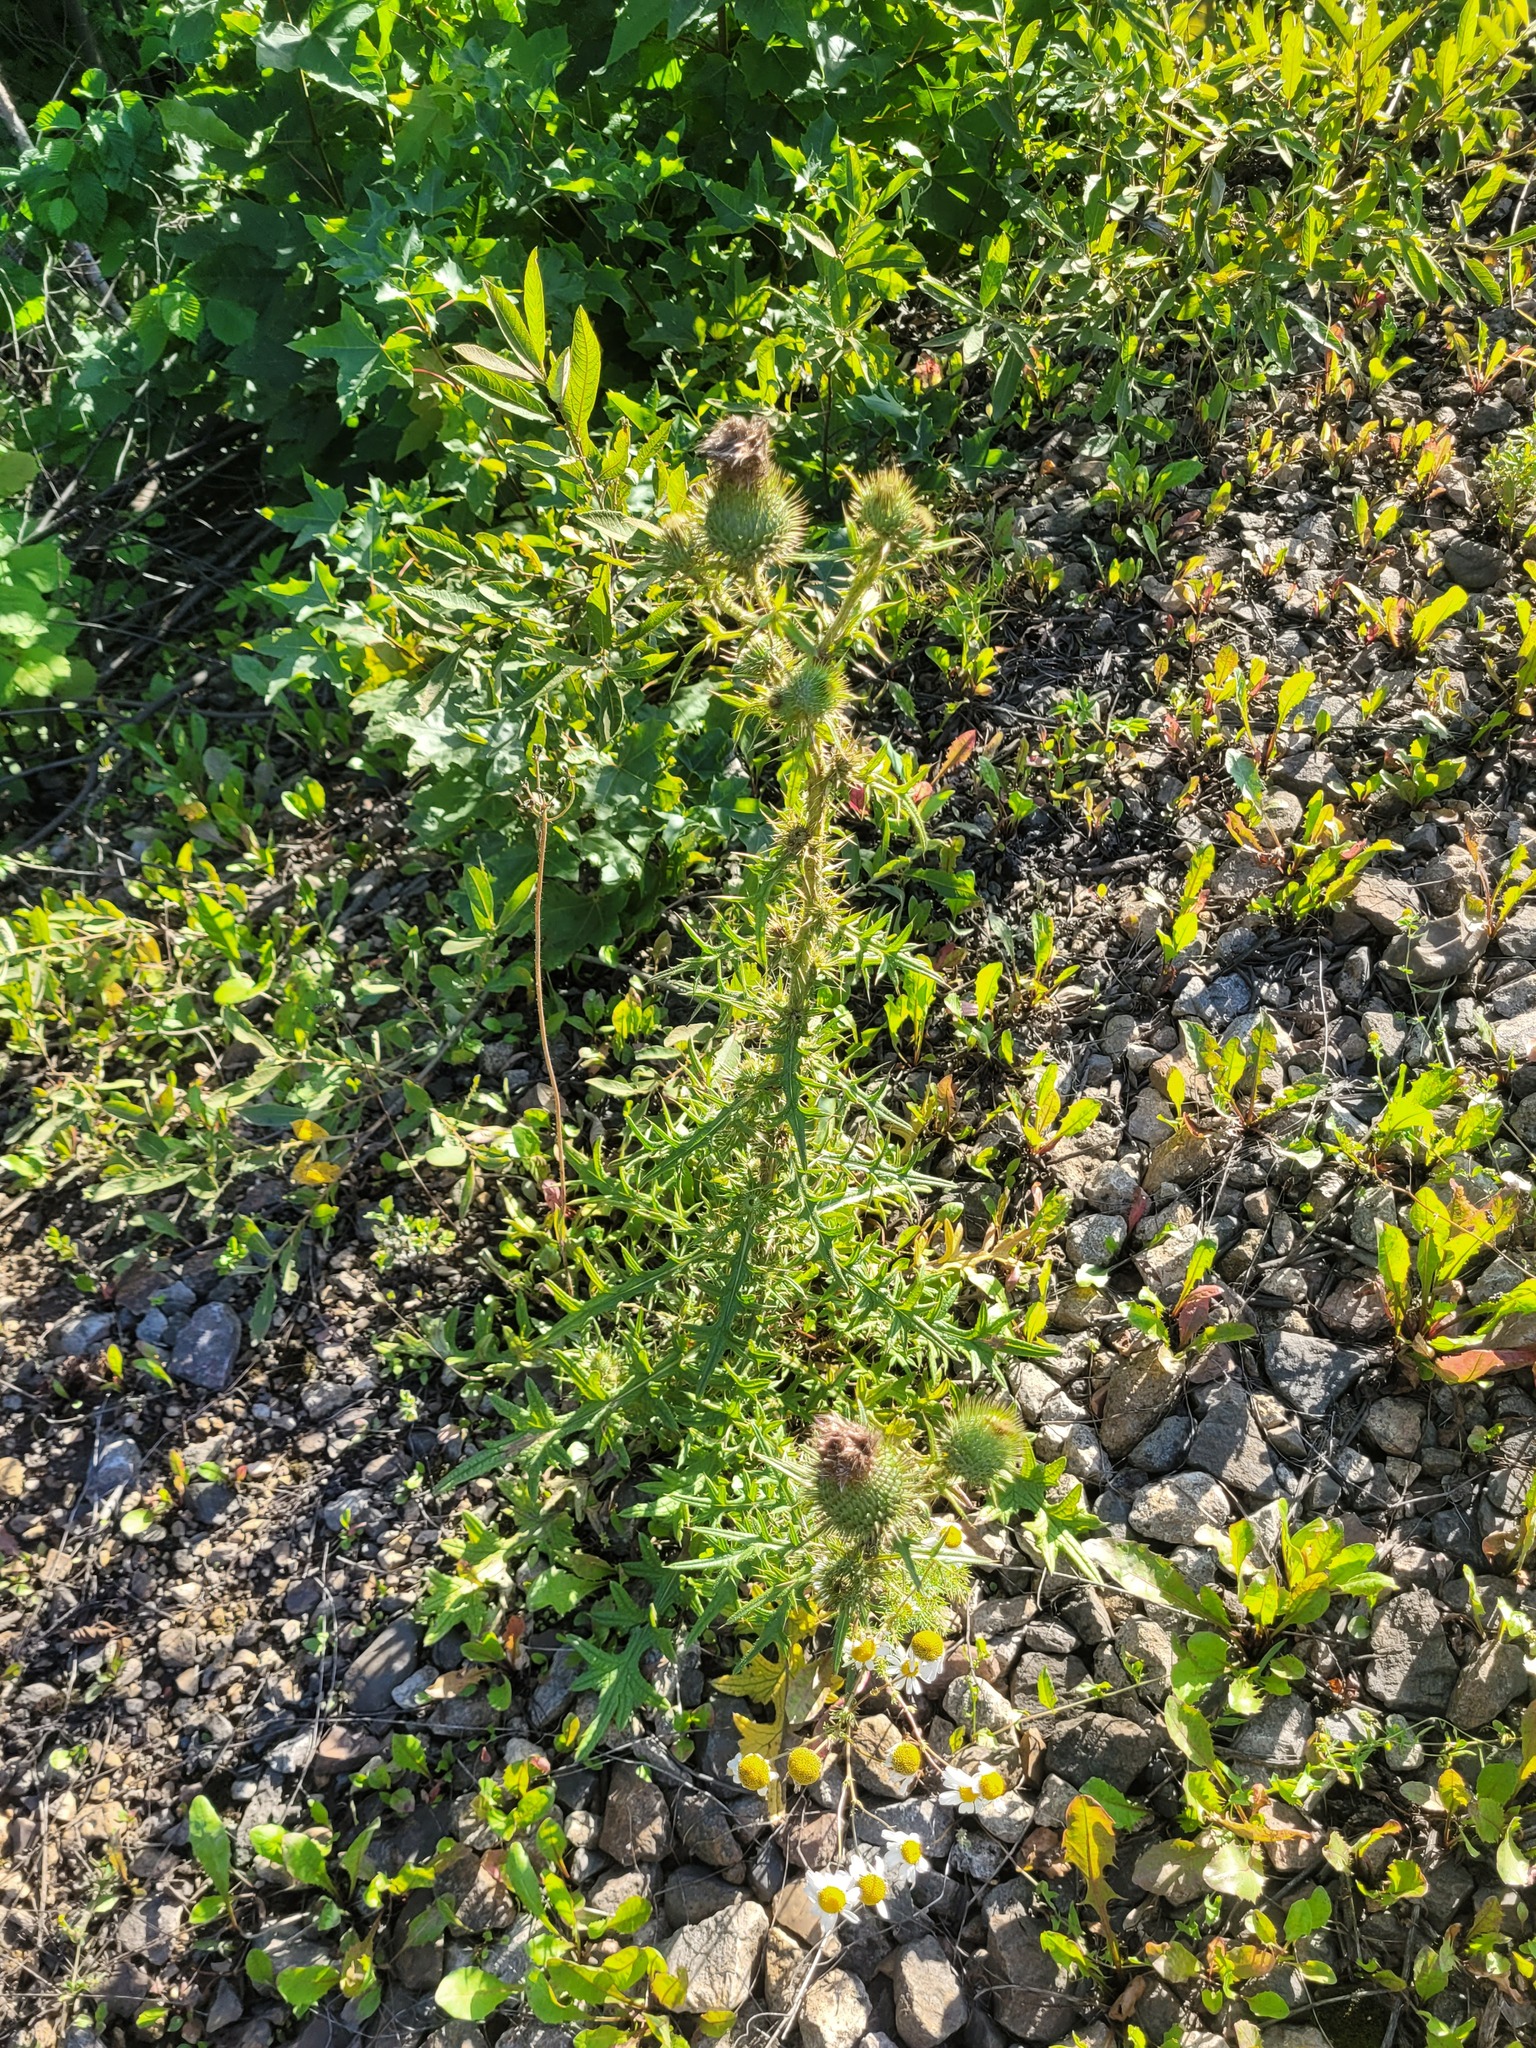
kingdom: Plantae
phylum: Tracheophyta
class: Magnoliopsida
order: Asterales
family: Asteraceae
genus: Cirsium
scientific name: Cirsium vulgare
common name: Bull thistle
